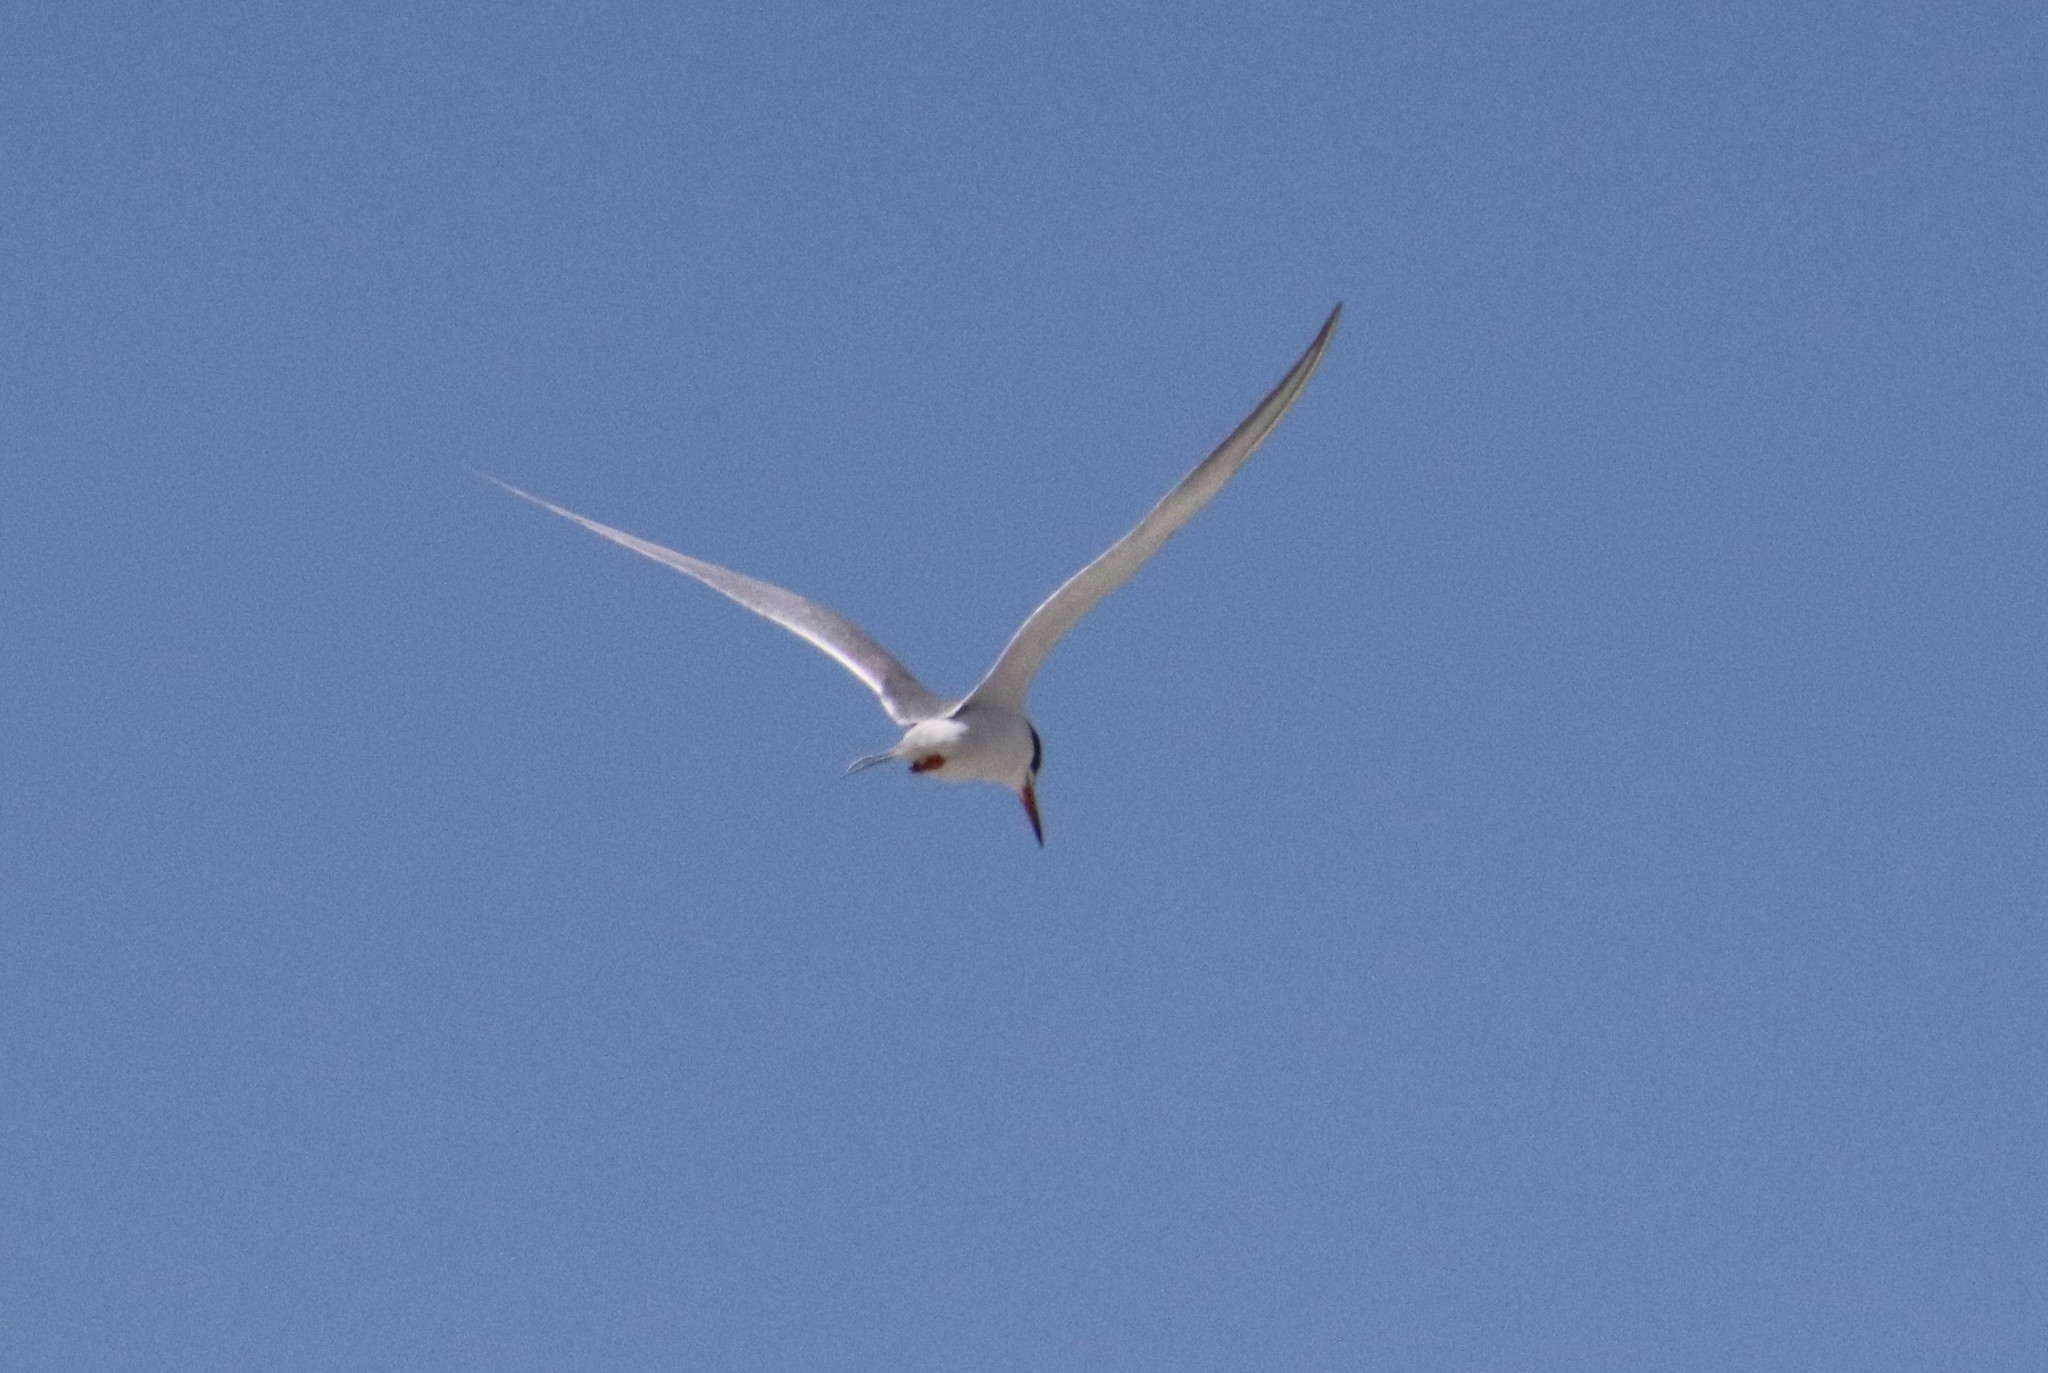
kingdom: Animalia
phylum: Chordata
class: Aves
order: Charadriiformes
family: Laridae
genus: Sterna
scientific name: Sterna forsteri
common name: Forster's tern
